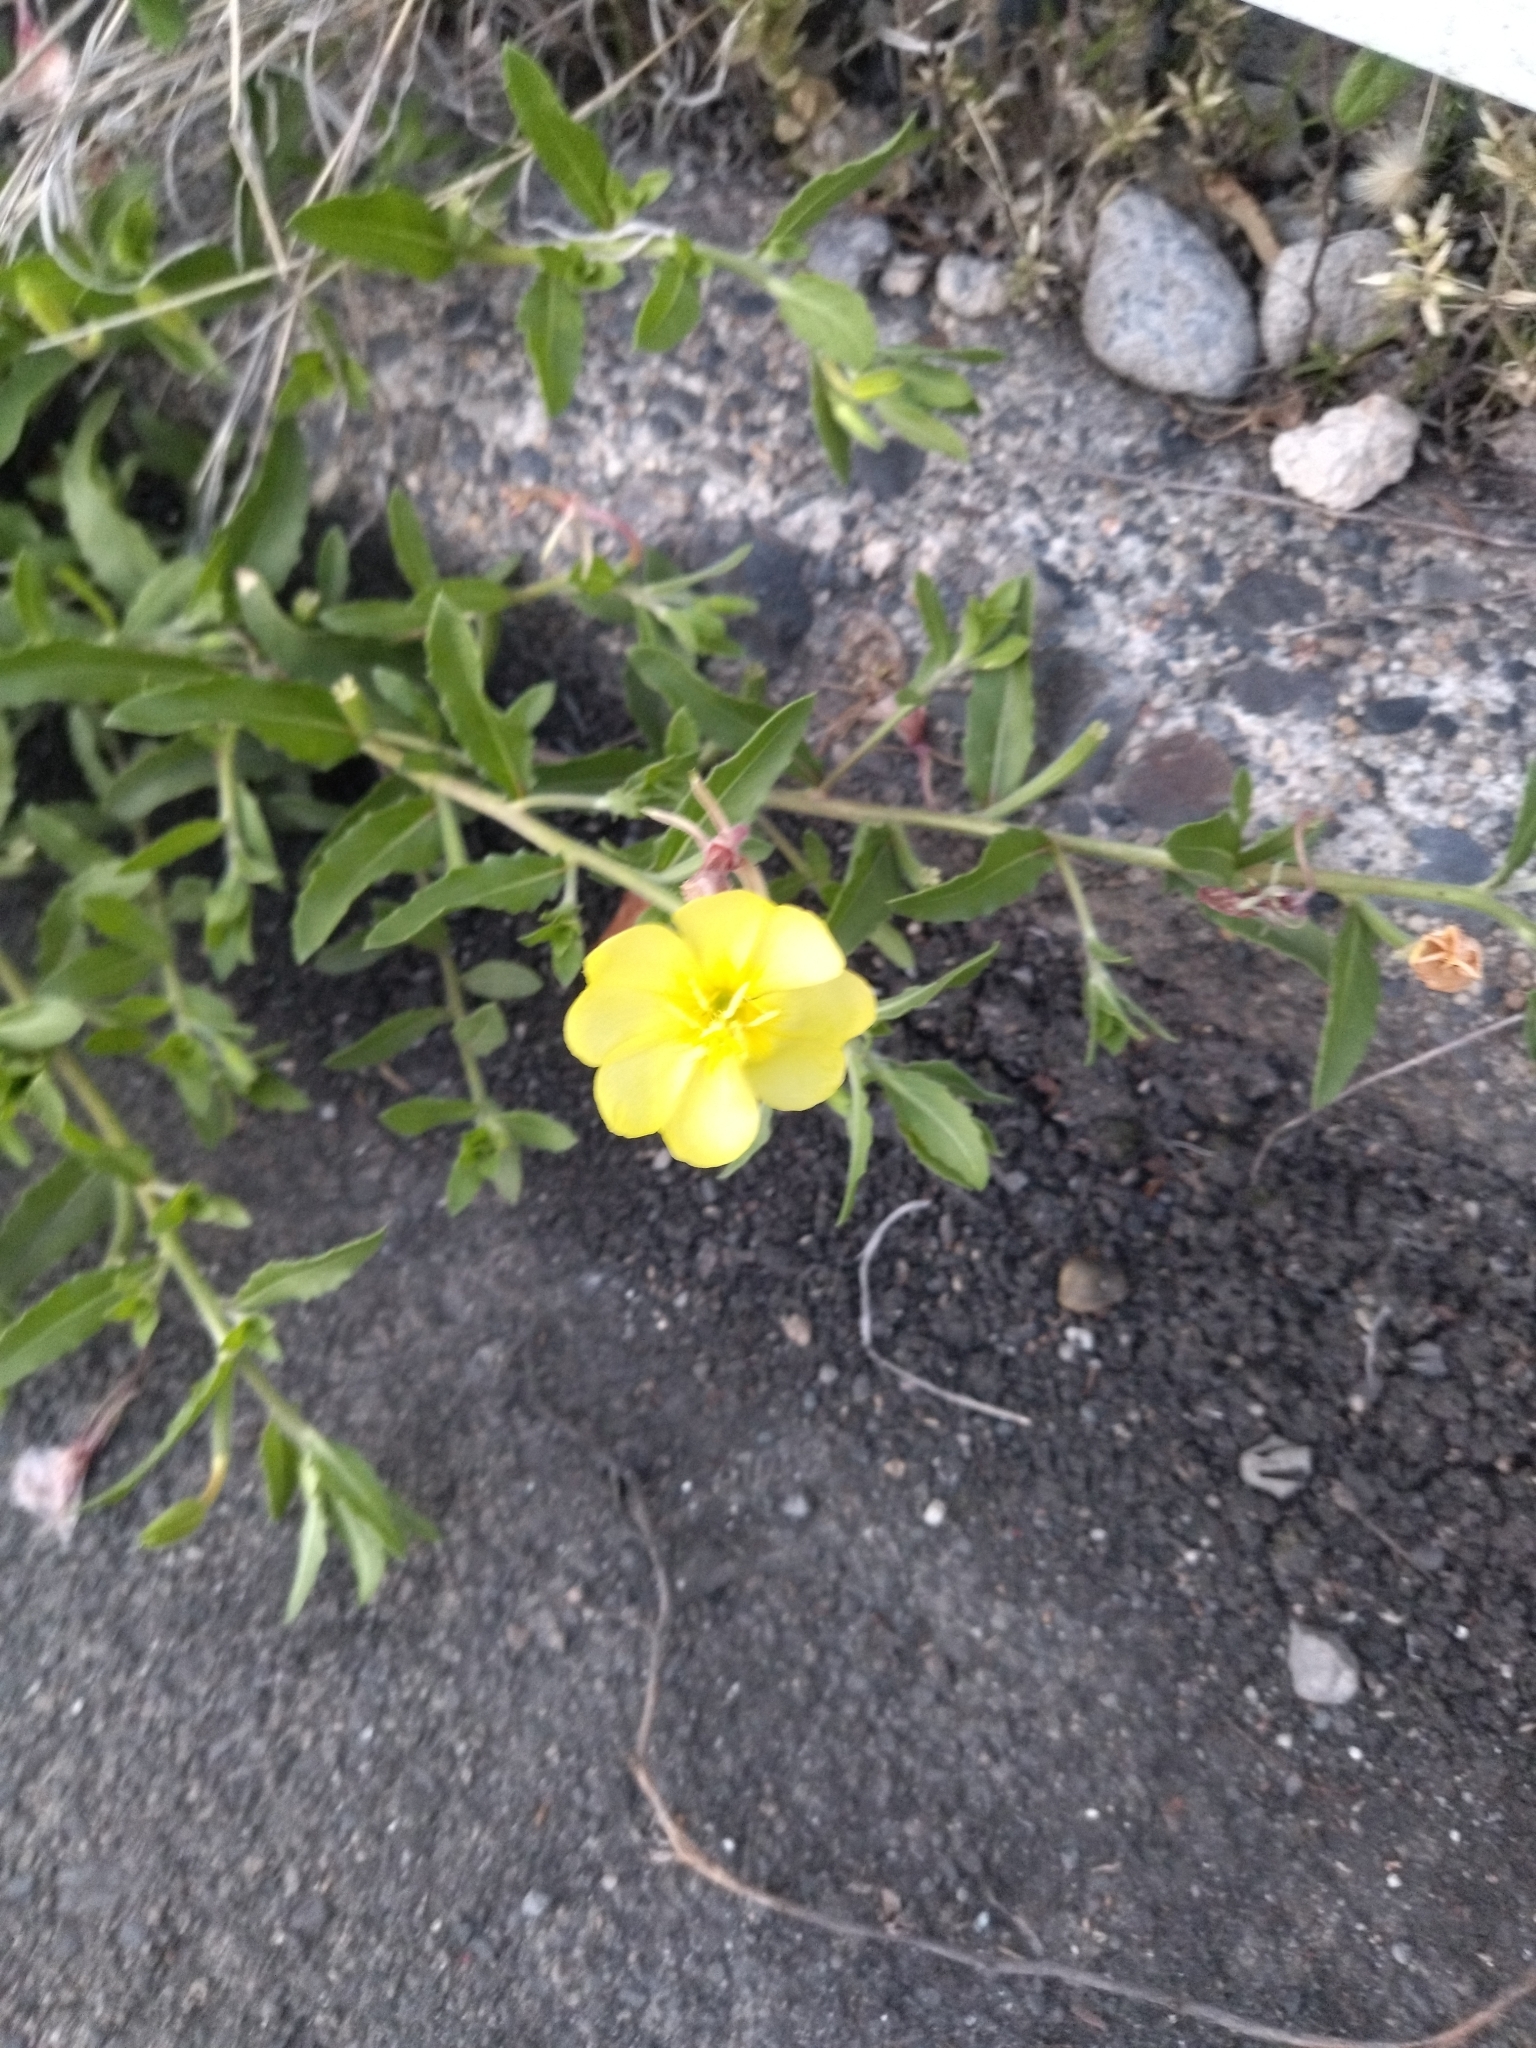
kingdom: Plantae
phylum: Tracheophyta
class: Magnoliopsida
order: Myrtales
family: Onagraceae
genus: Oenothera
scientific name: Oenothera laciniata
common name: Cut-leaved evening-primrose
